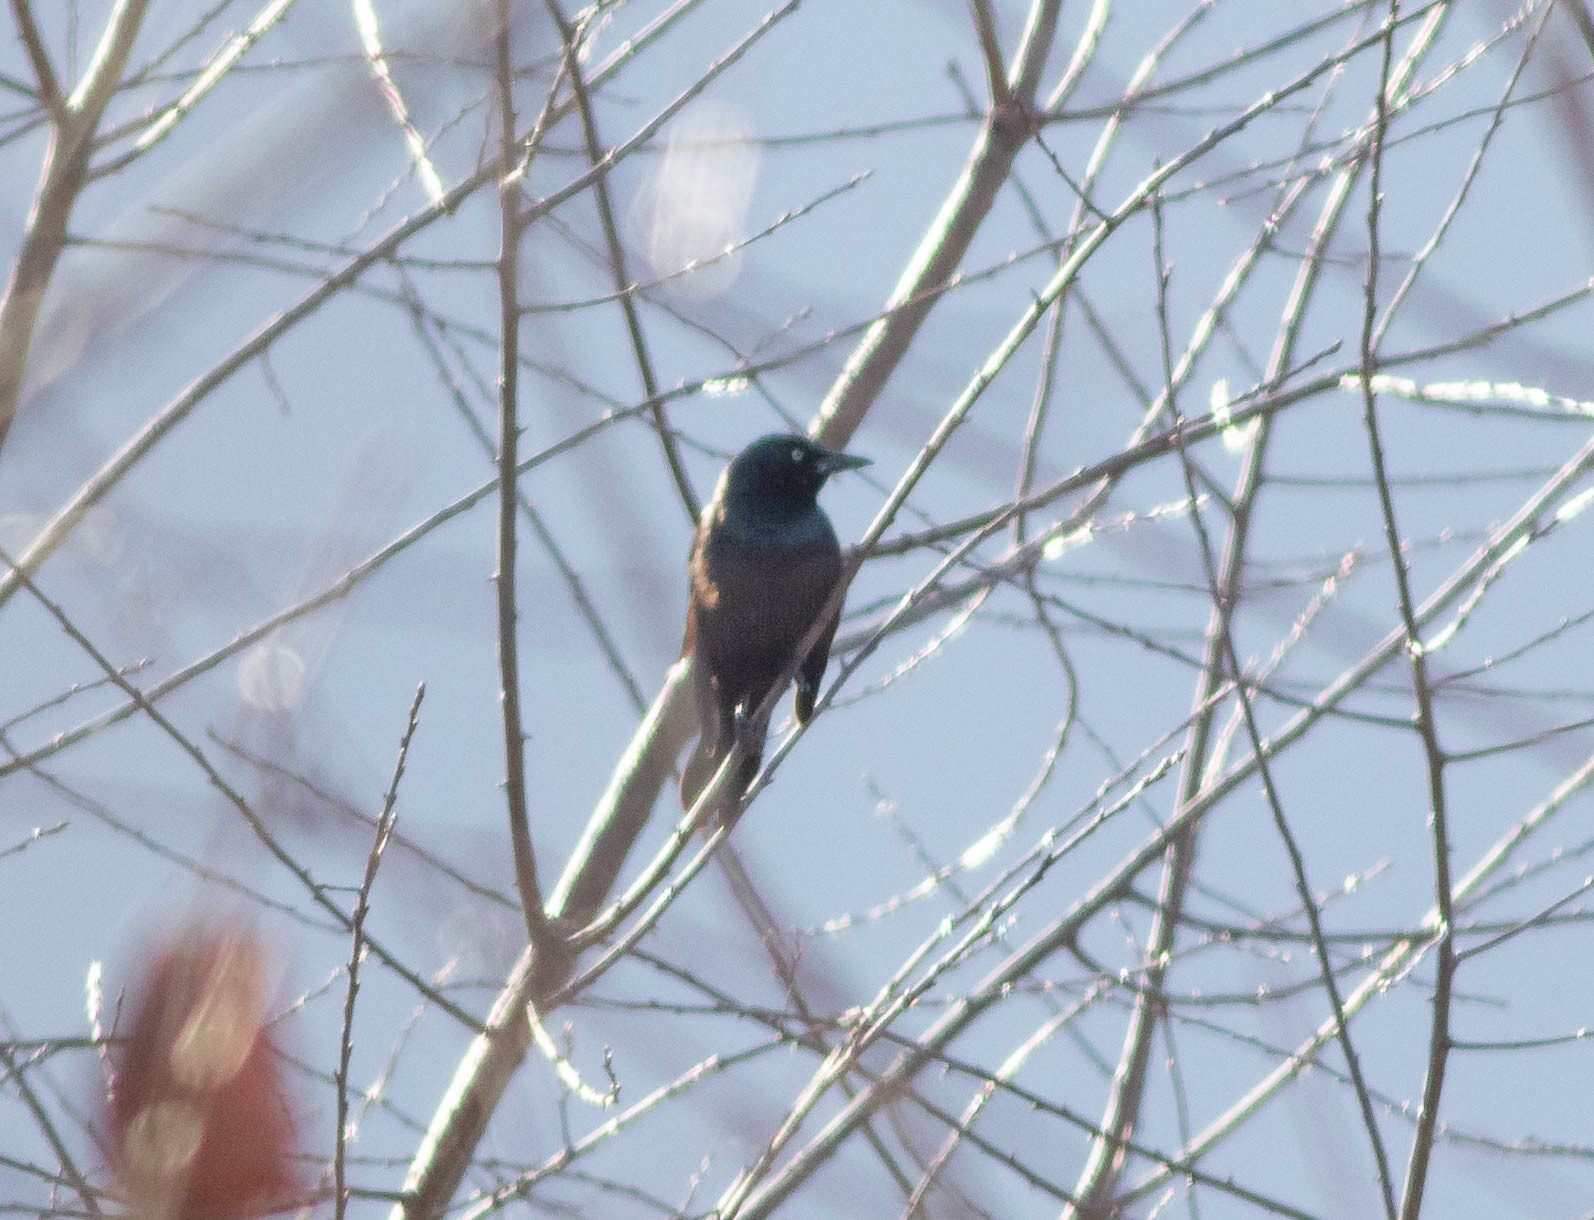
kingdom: Animalia
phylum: Chordata
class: Aves
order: Passeriformes
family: Icteridae
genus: Quiscalus
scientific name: Quiscalus quiscula
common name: Common grackle
